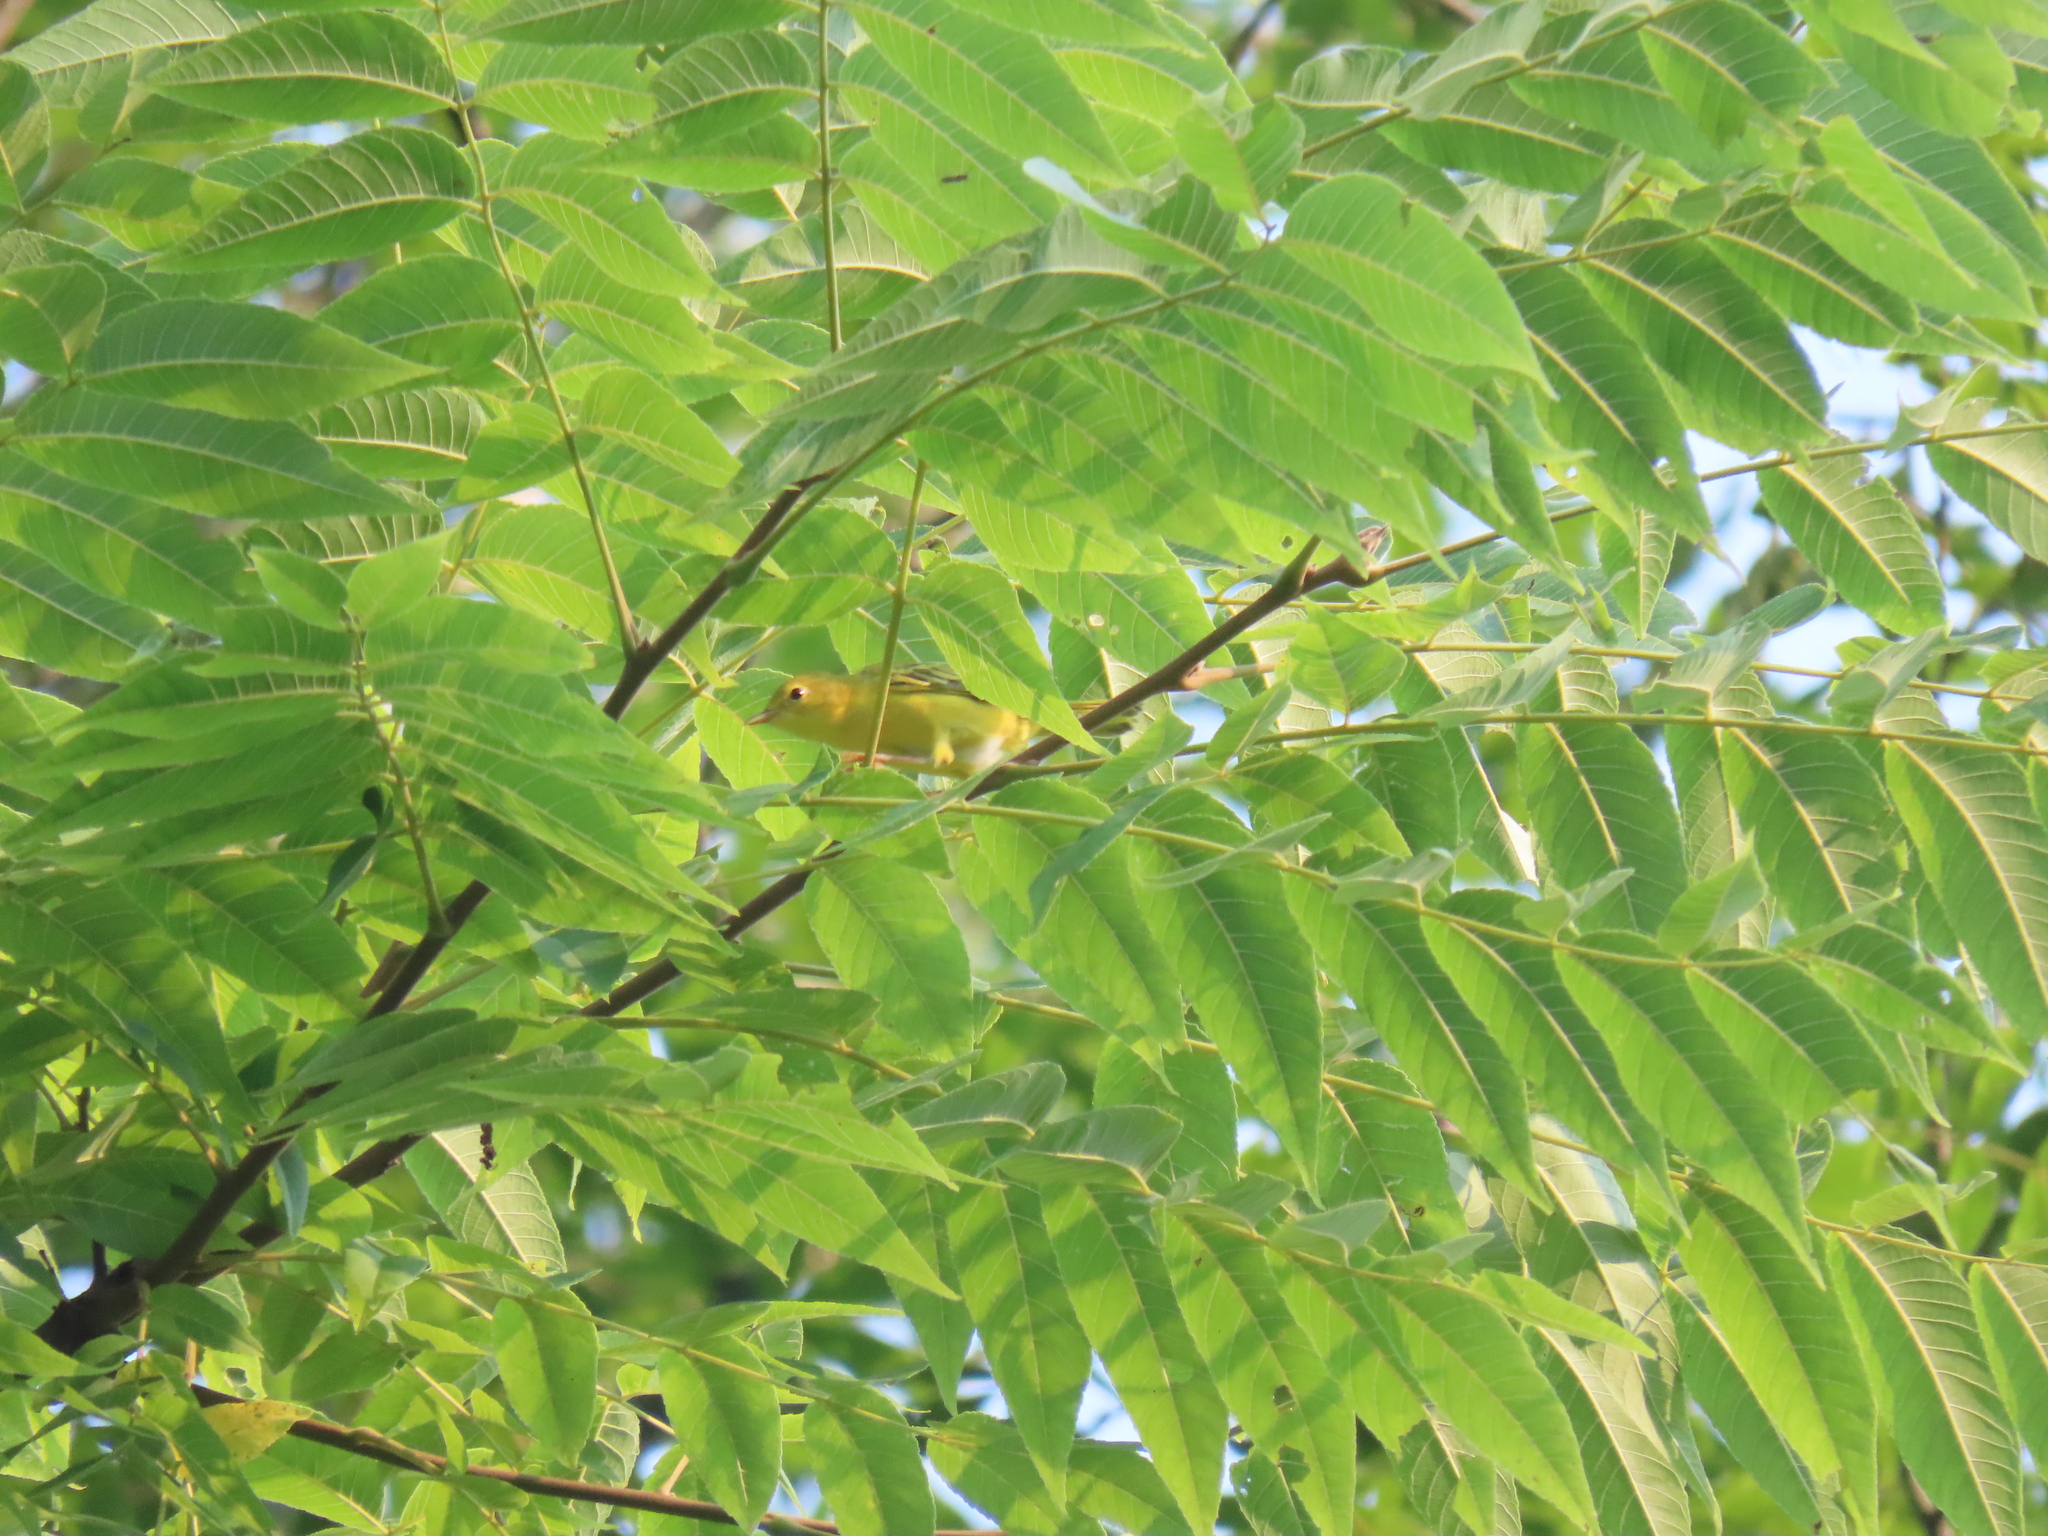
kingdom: Animalia
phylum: Chordata
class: Aves
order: Passeriformes
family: Parulidae
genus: Setophaga
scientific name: Setophaga petechia
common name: Yellow warbler
